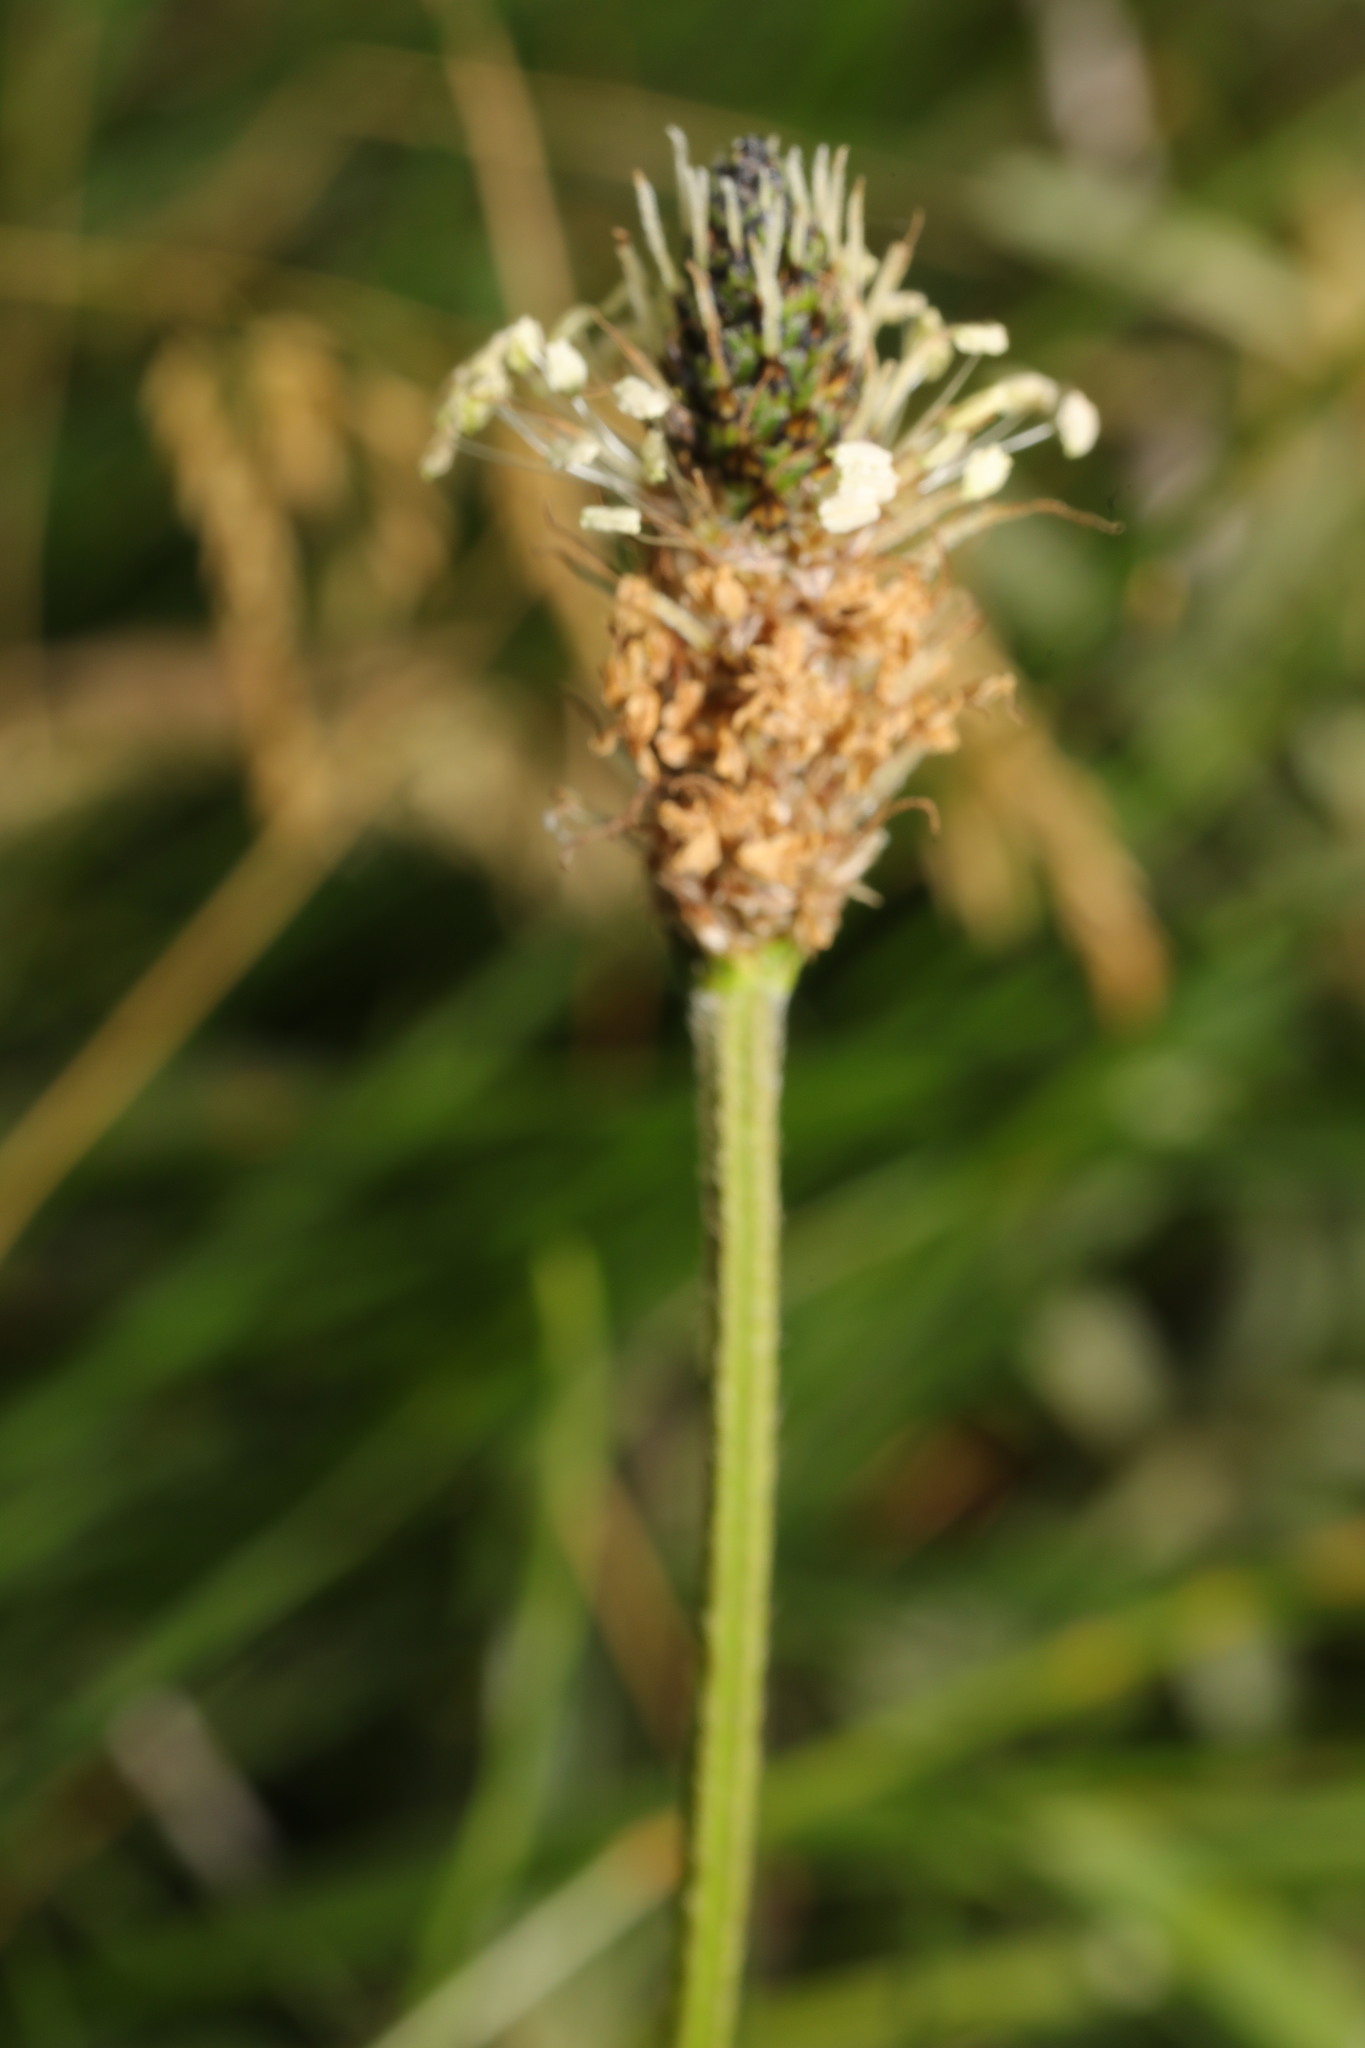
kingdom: Plantae
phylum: Tracheophyta
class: Magnoliopsida
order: Lamiales
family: Plantaginaceae
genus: Plantago
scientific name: Plantago lanceolata
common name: Ribwort plantain
